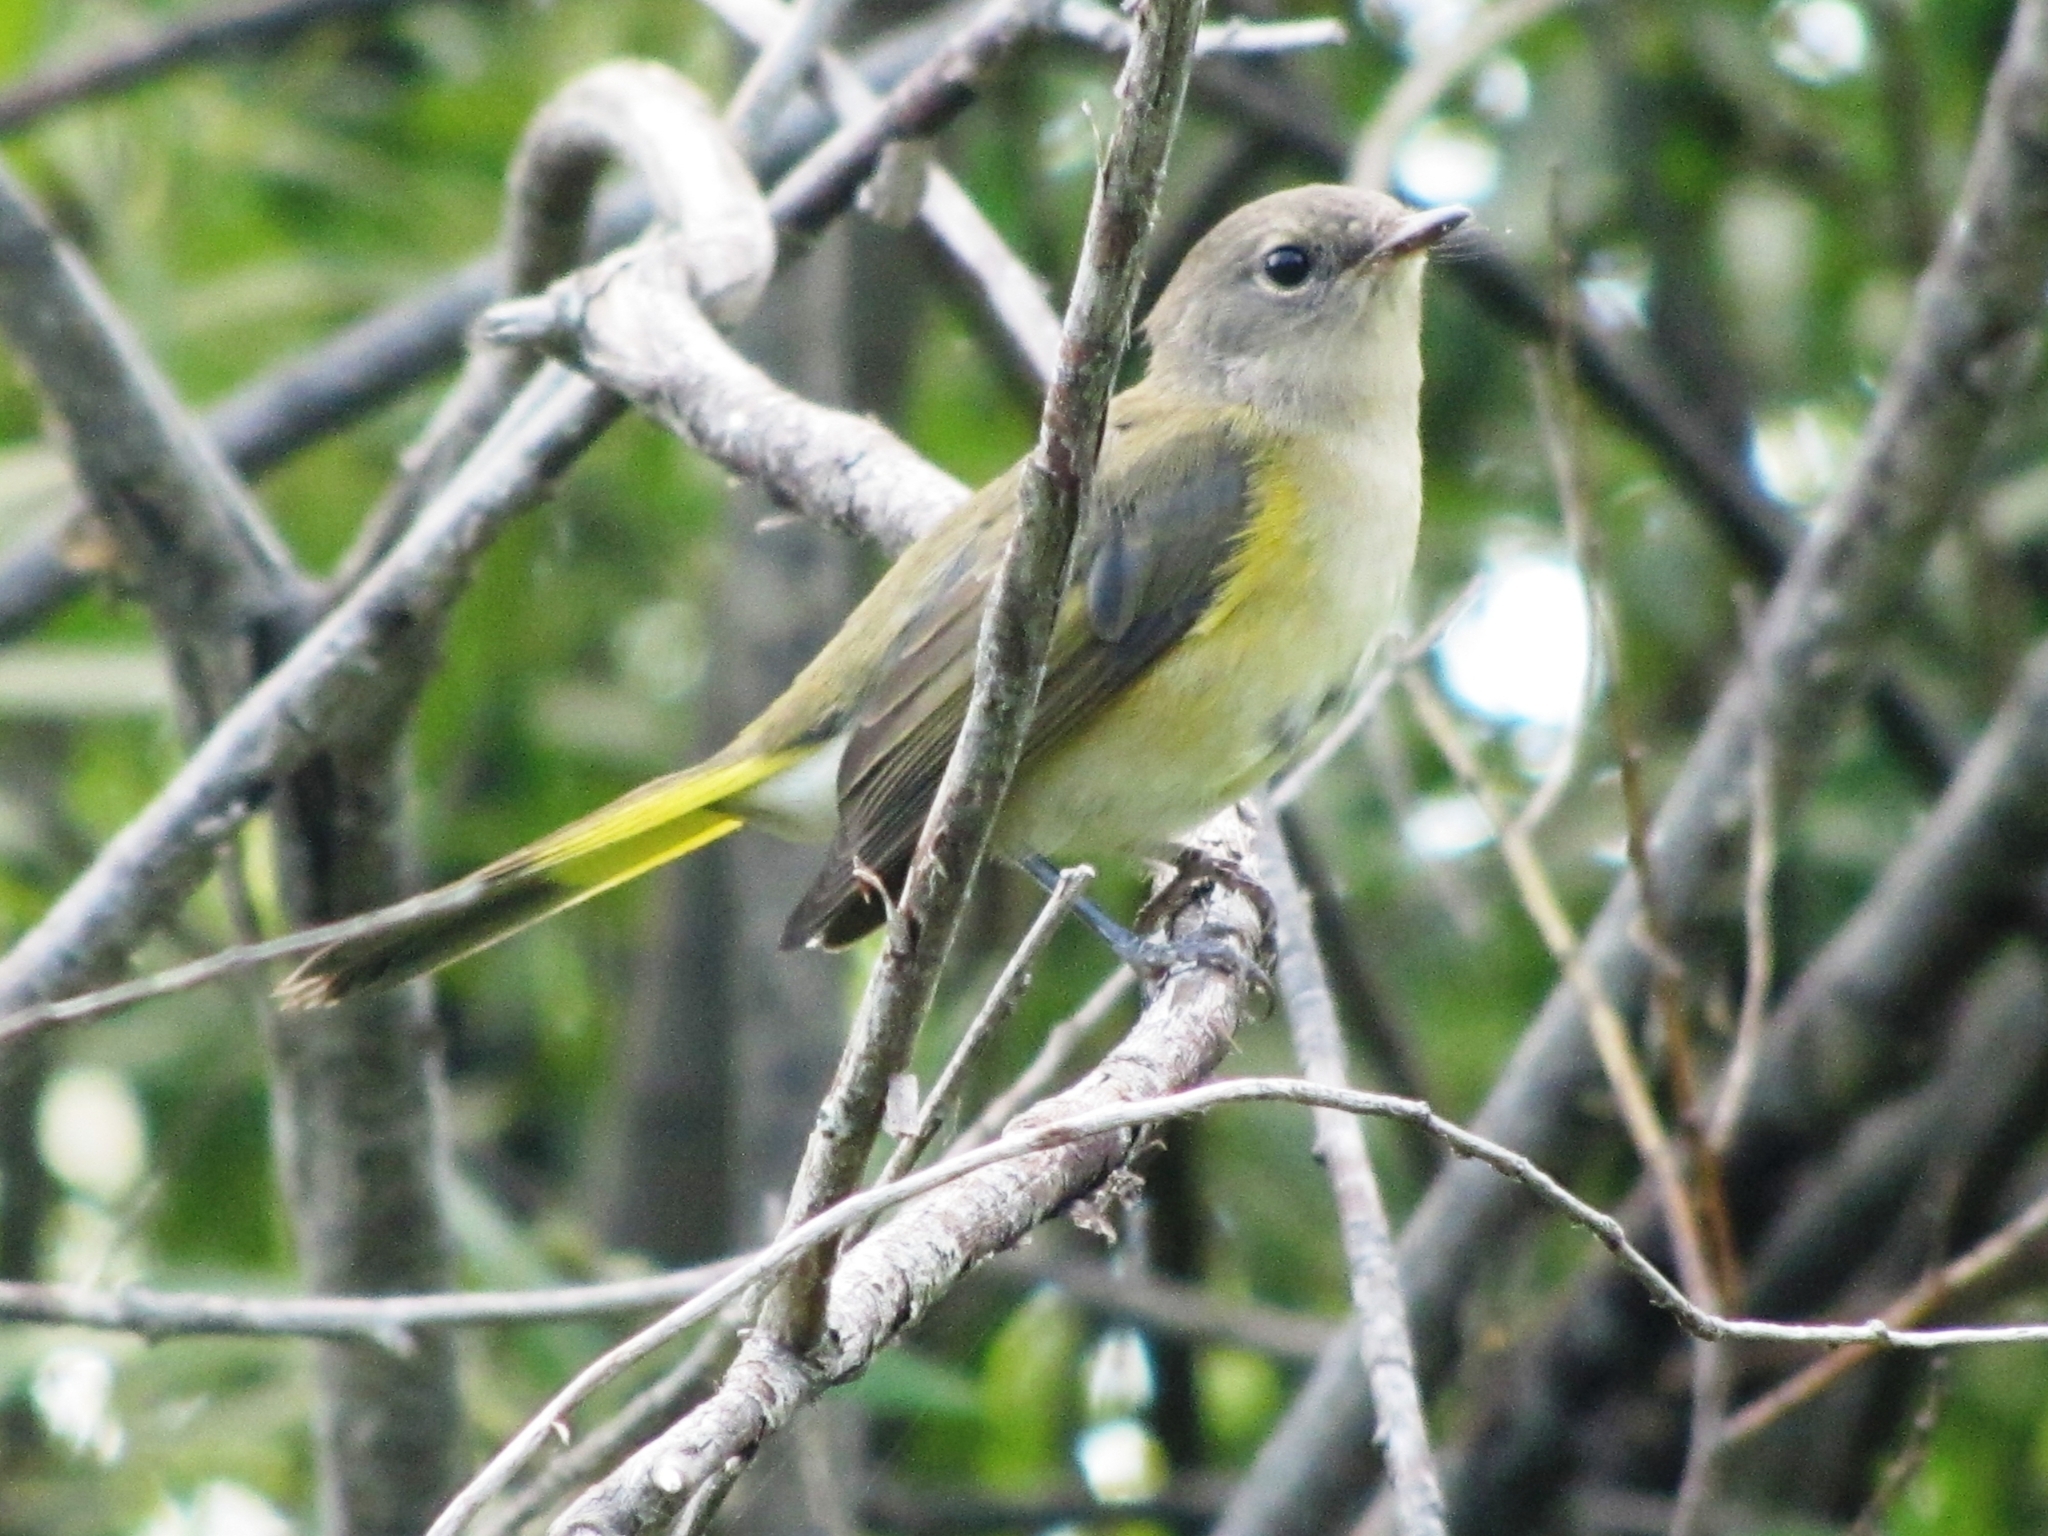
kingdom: Animalia
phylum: Chordata
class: Aves
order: Passeriformes
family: Parulidae
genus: Setophaga
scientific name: Setophaga ruticilla
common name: American redstart
